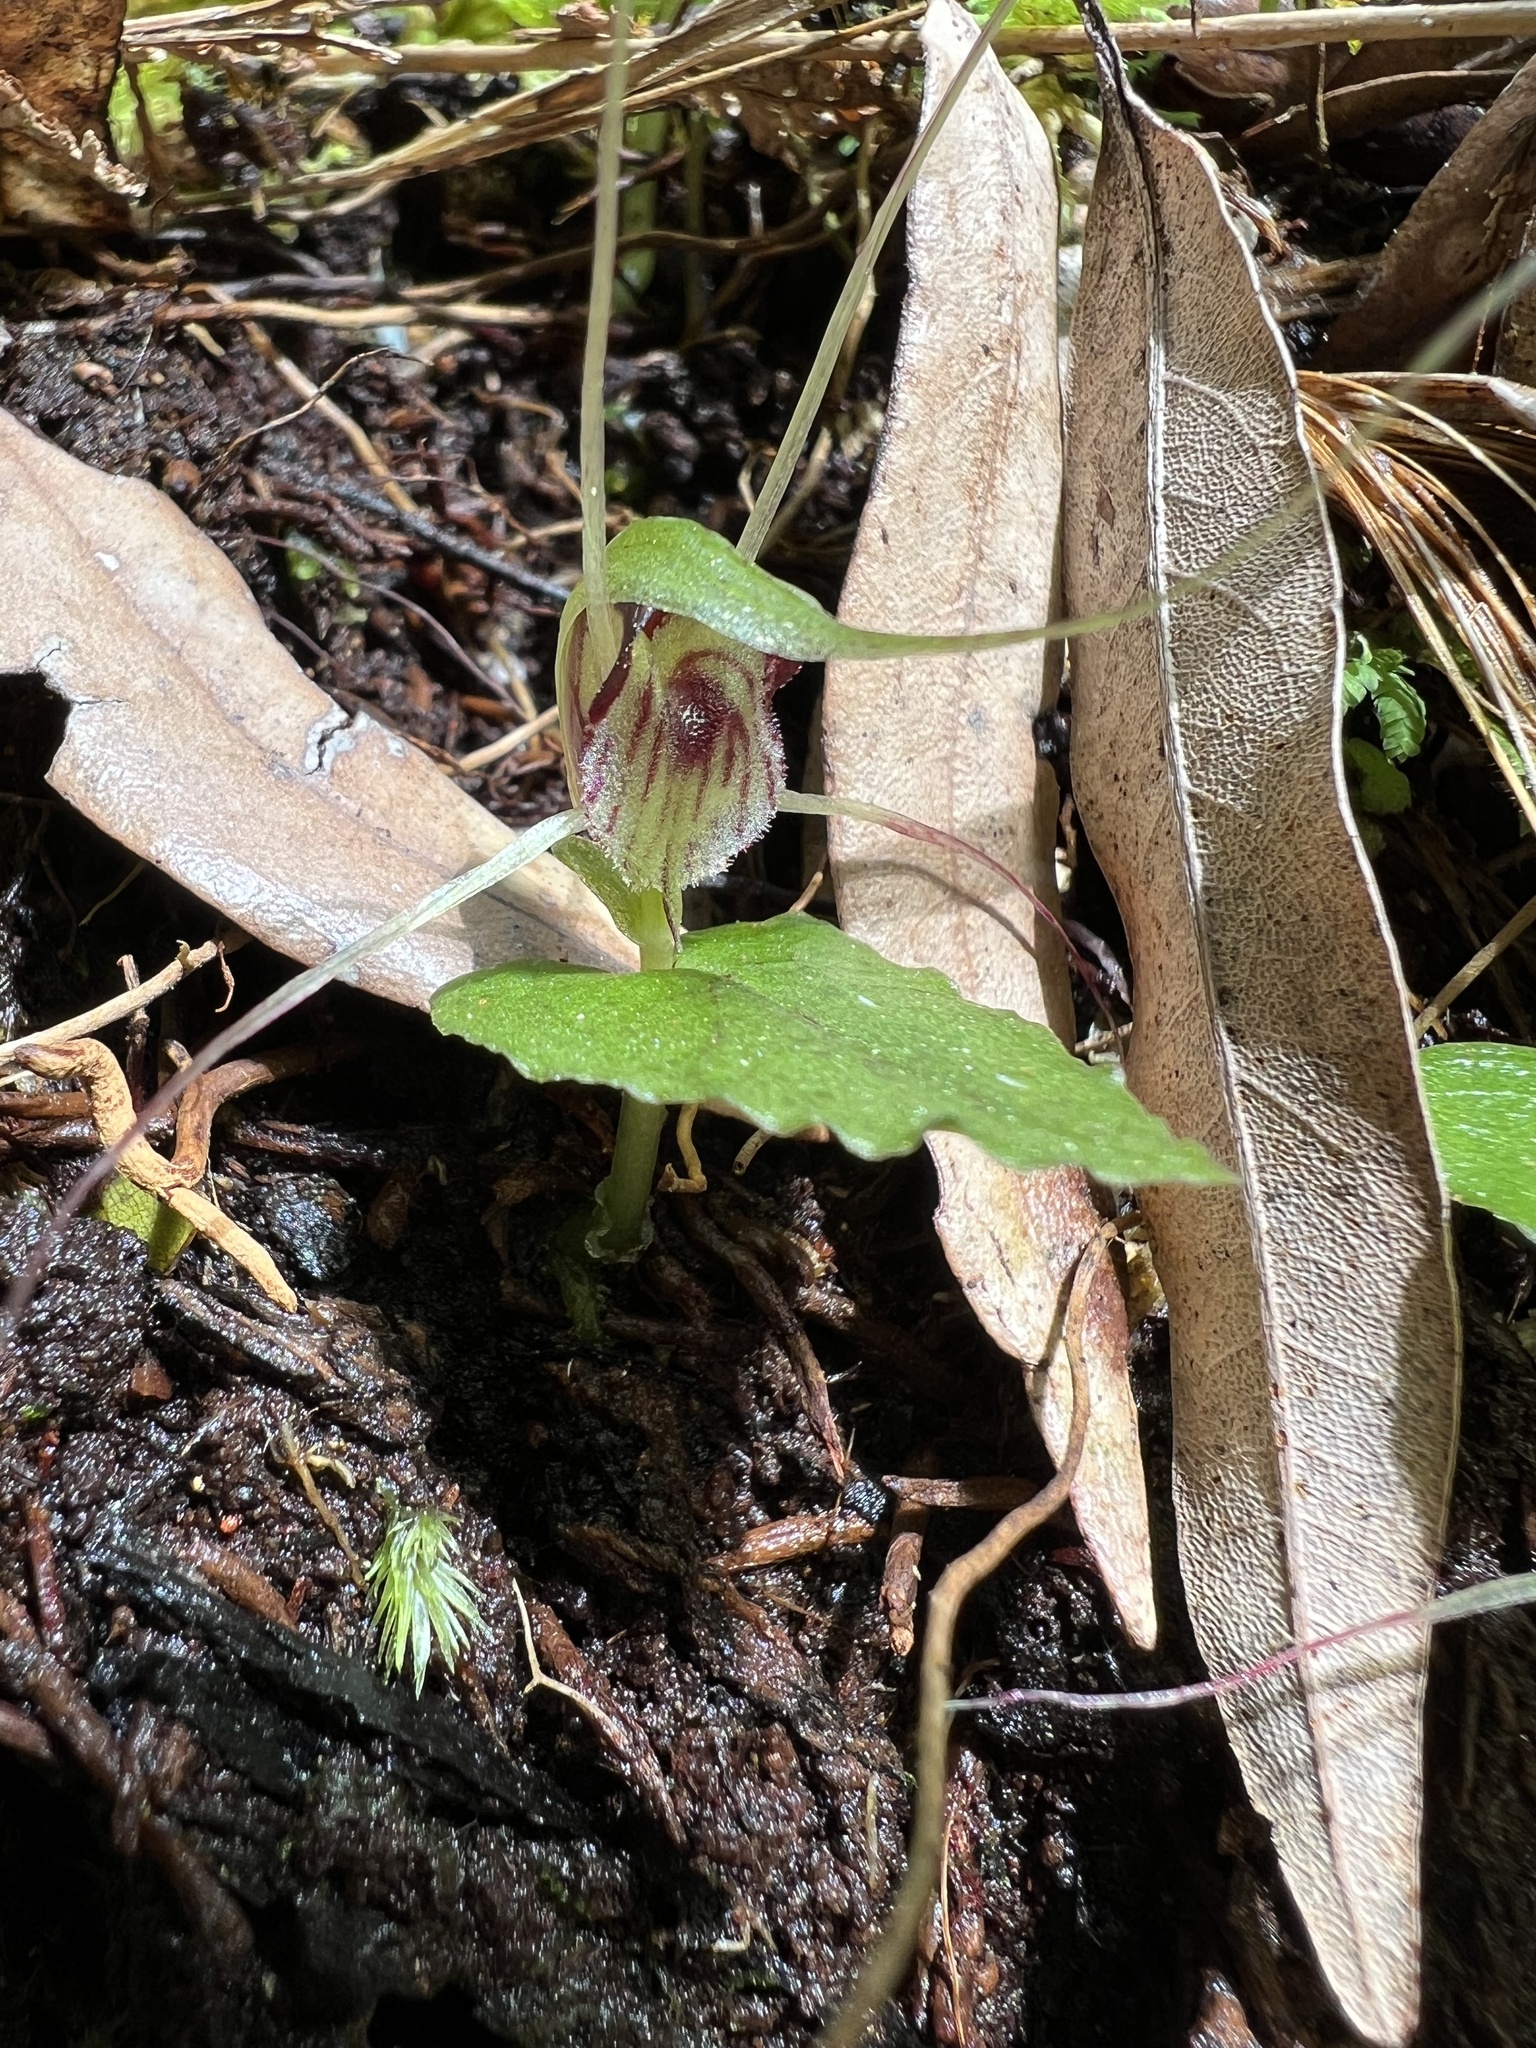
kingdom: Plantae
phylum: Tracheophyta
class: Liliopsida
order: Asparagales
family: Orchidaceae
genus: Corybas
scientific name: Corybas acuminatus
